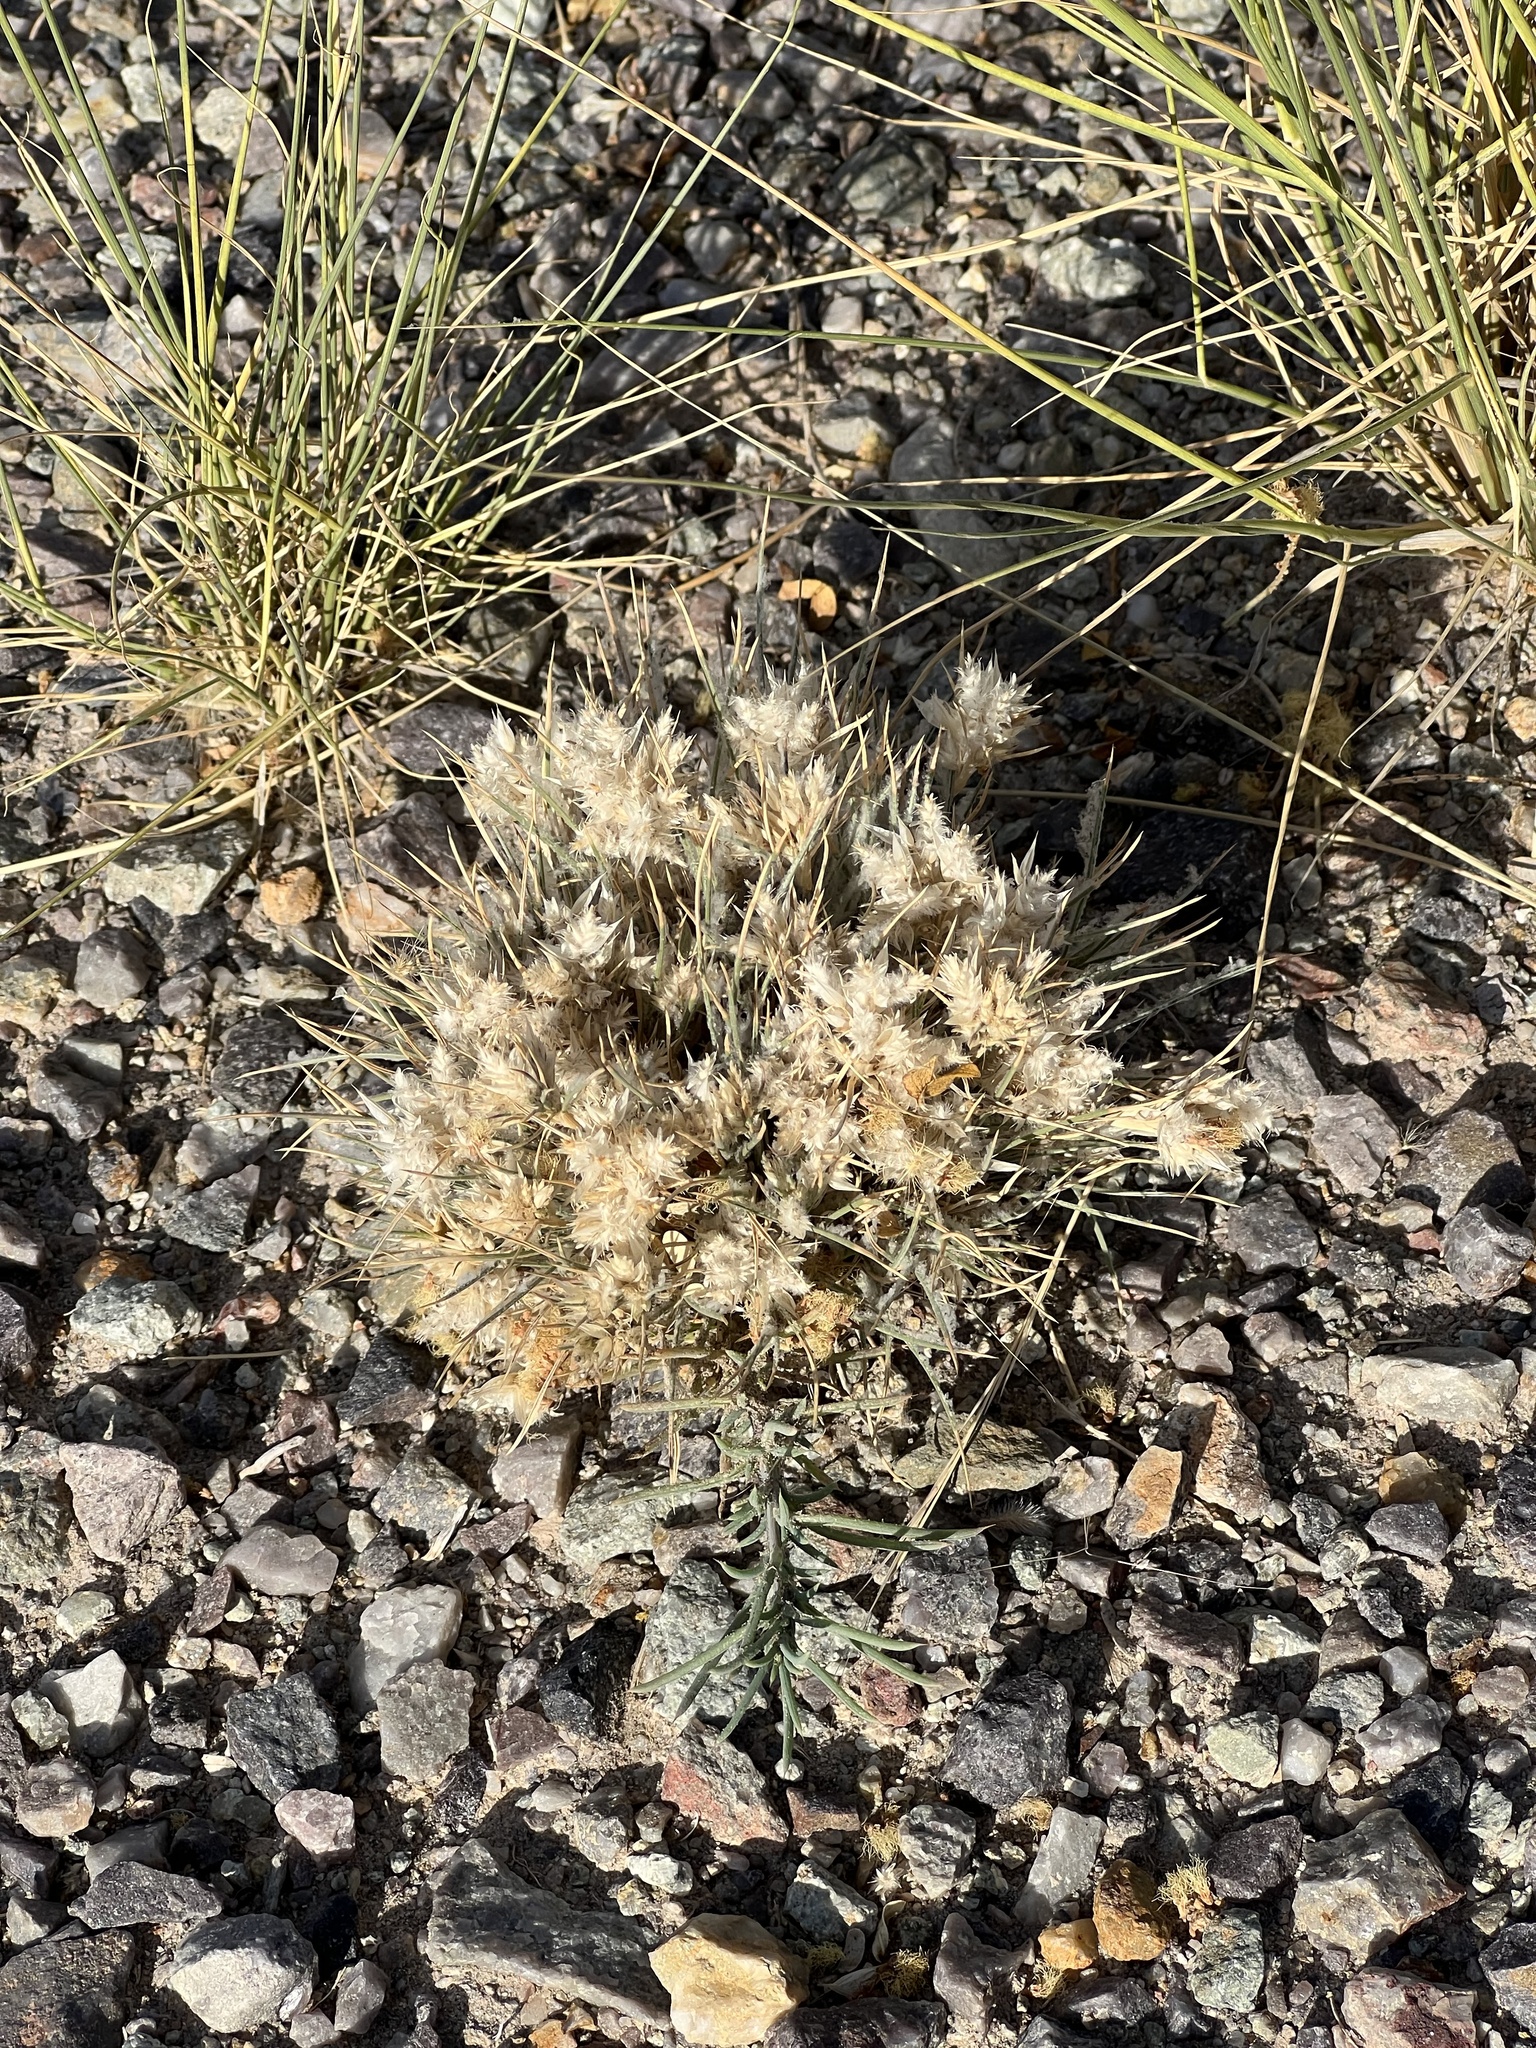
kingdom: Plantae
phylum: Tracheophyta
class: Liliopsida
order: Poales
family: Poaceae
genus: Dasyochloa
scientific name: Dasyochloa pulchella
